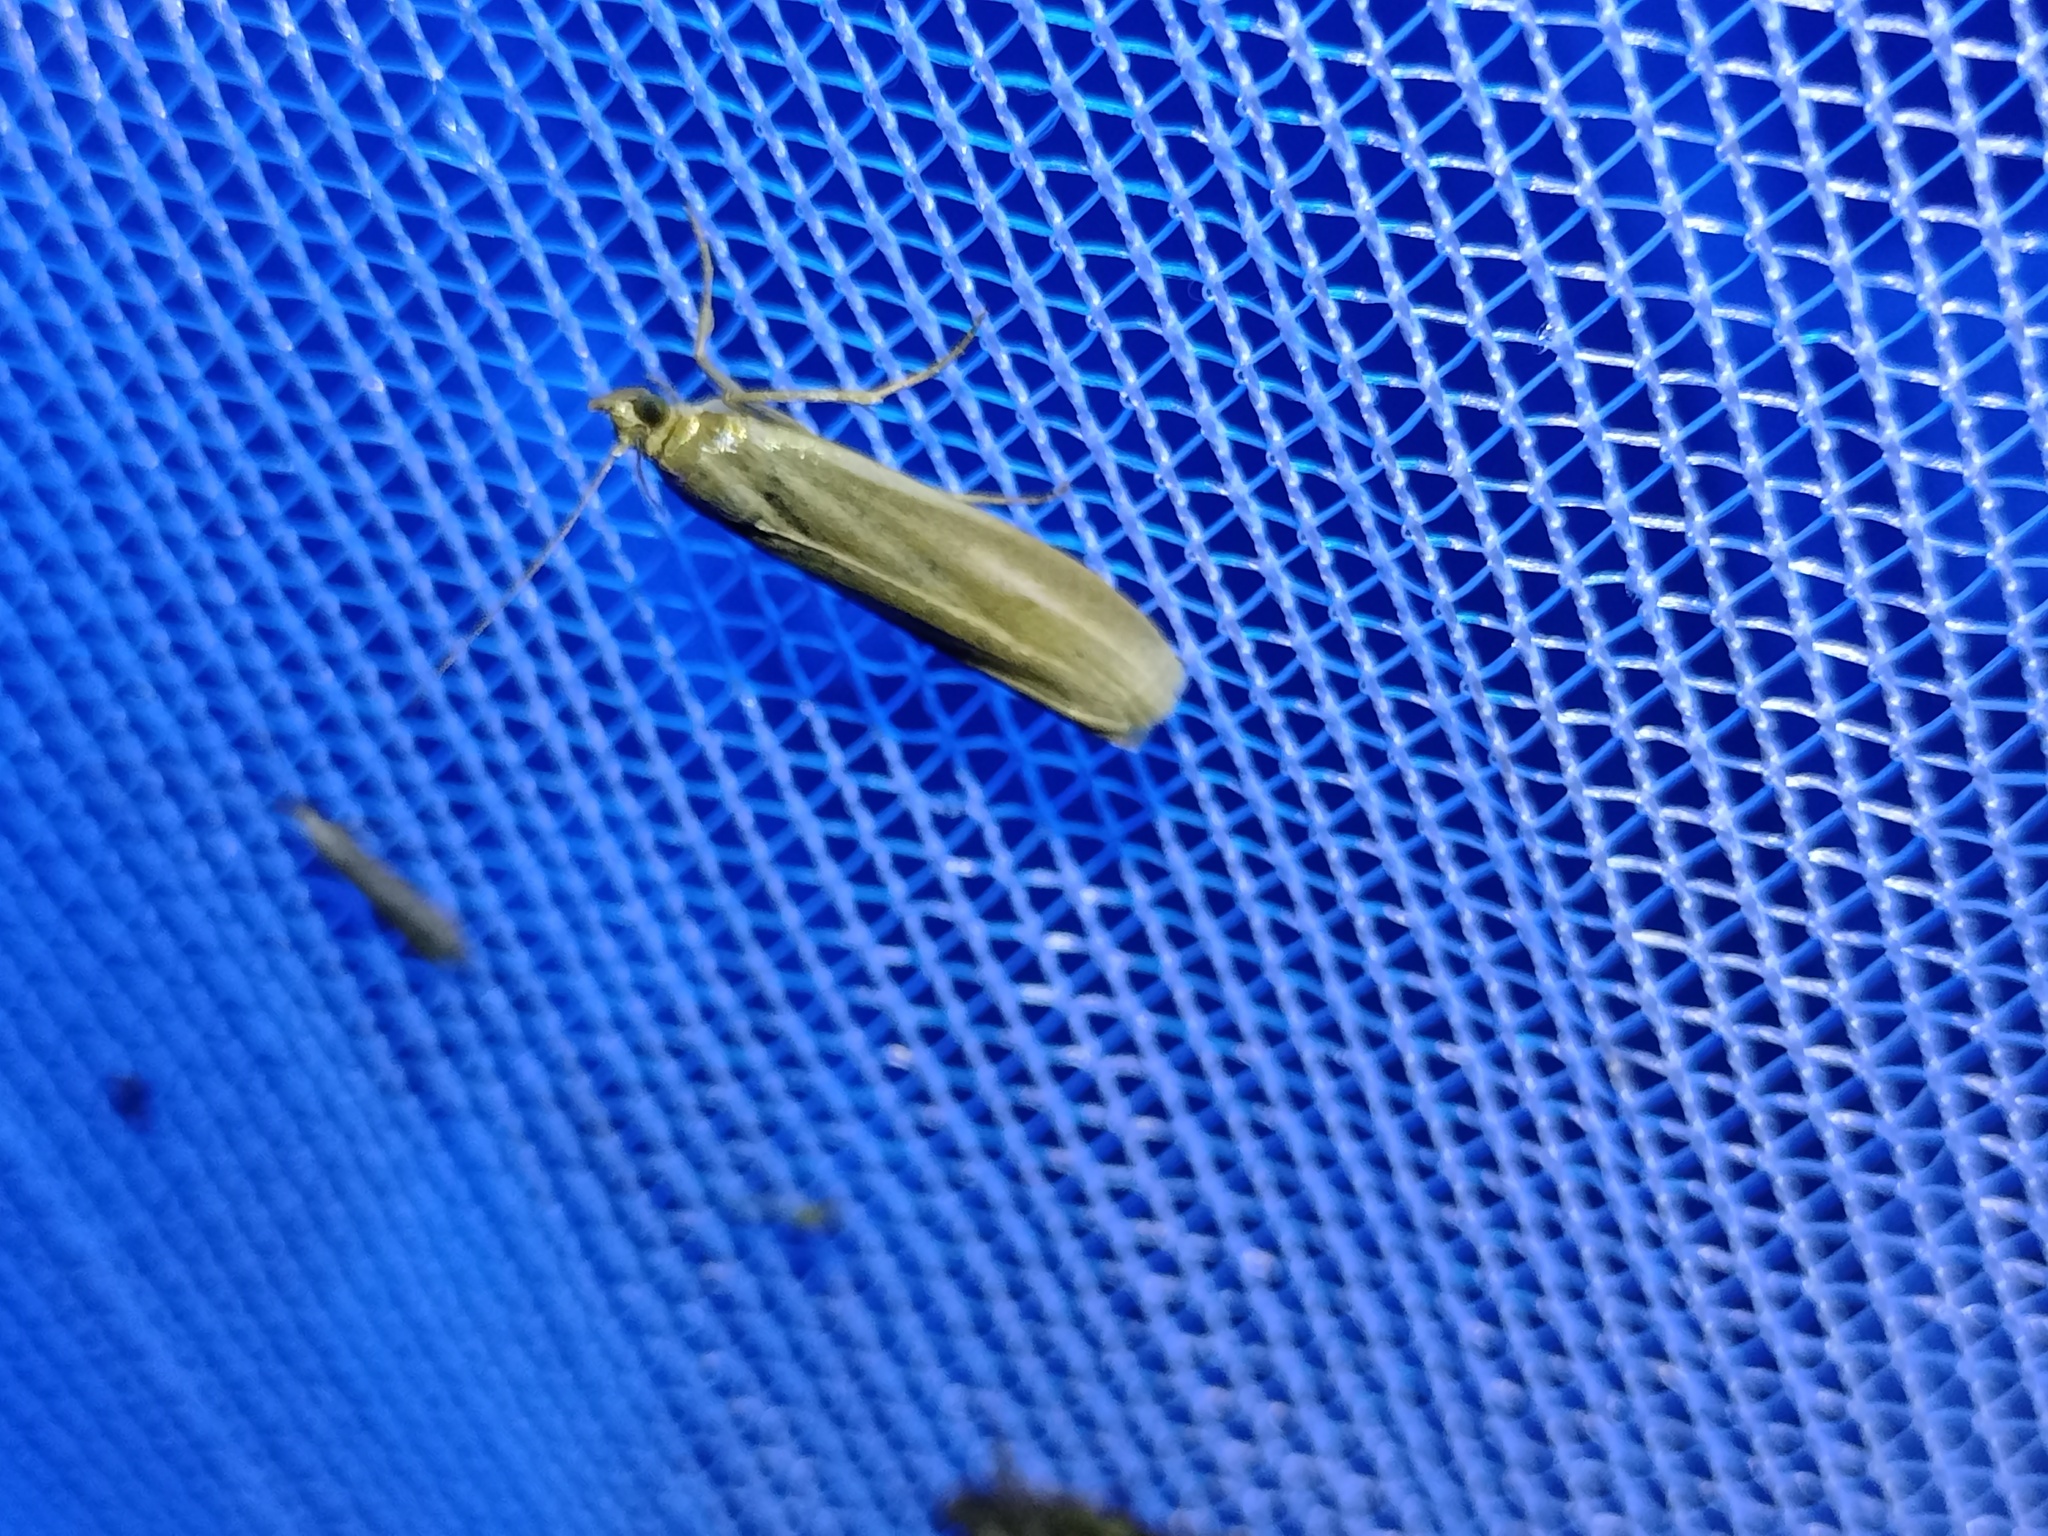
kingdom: Animalia
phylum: Arthropoda
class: Insecta
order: Lepidoptera
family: Pyralidae
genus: Selagia
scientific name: Selagia argyrella
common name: Silvery knot-horn
